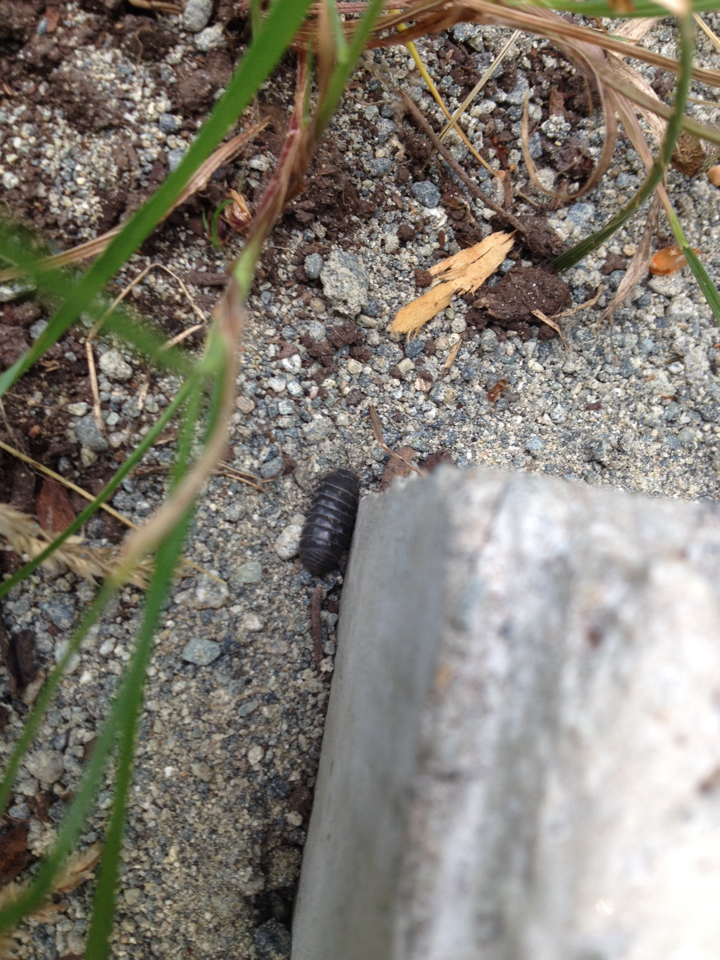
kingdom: Animalia
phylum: Arthropoda
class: Malacostraca
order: Isopoda
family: Armadillidiidae
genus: Armadillidium
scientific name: Armadillidium vulgare
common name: Common pill woodlouse
